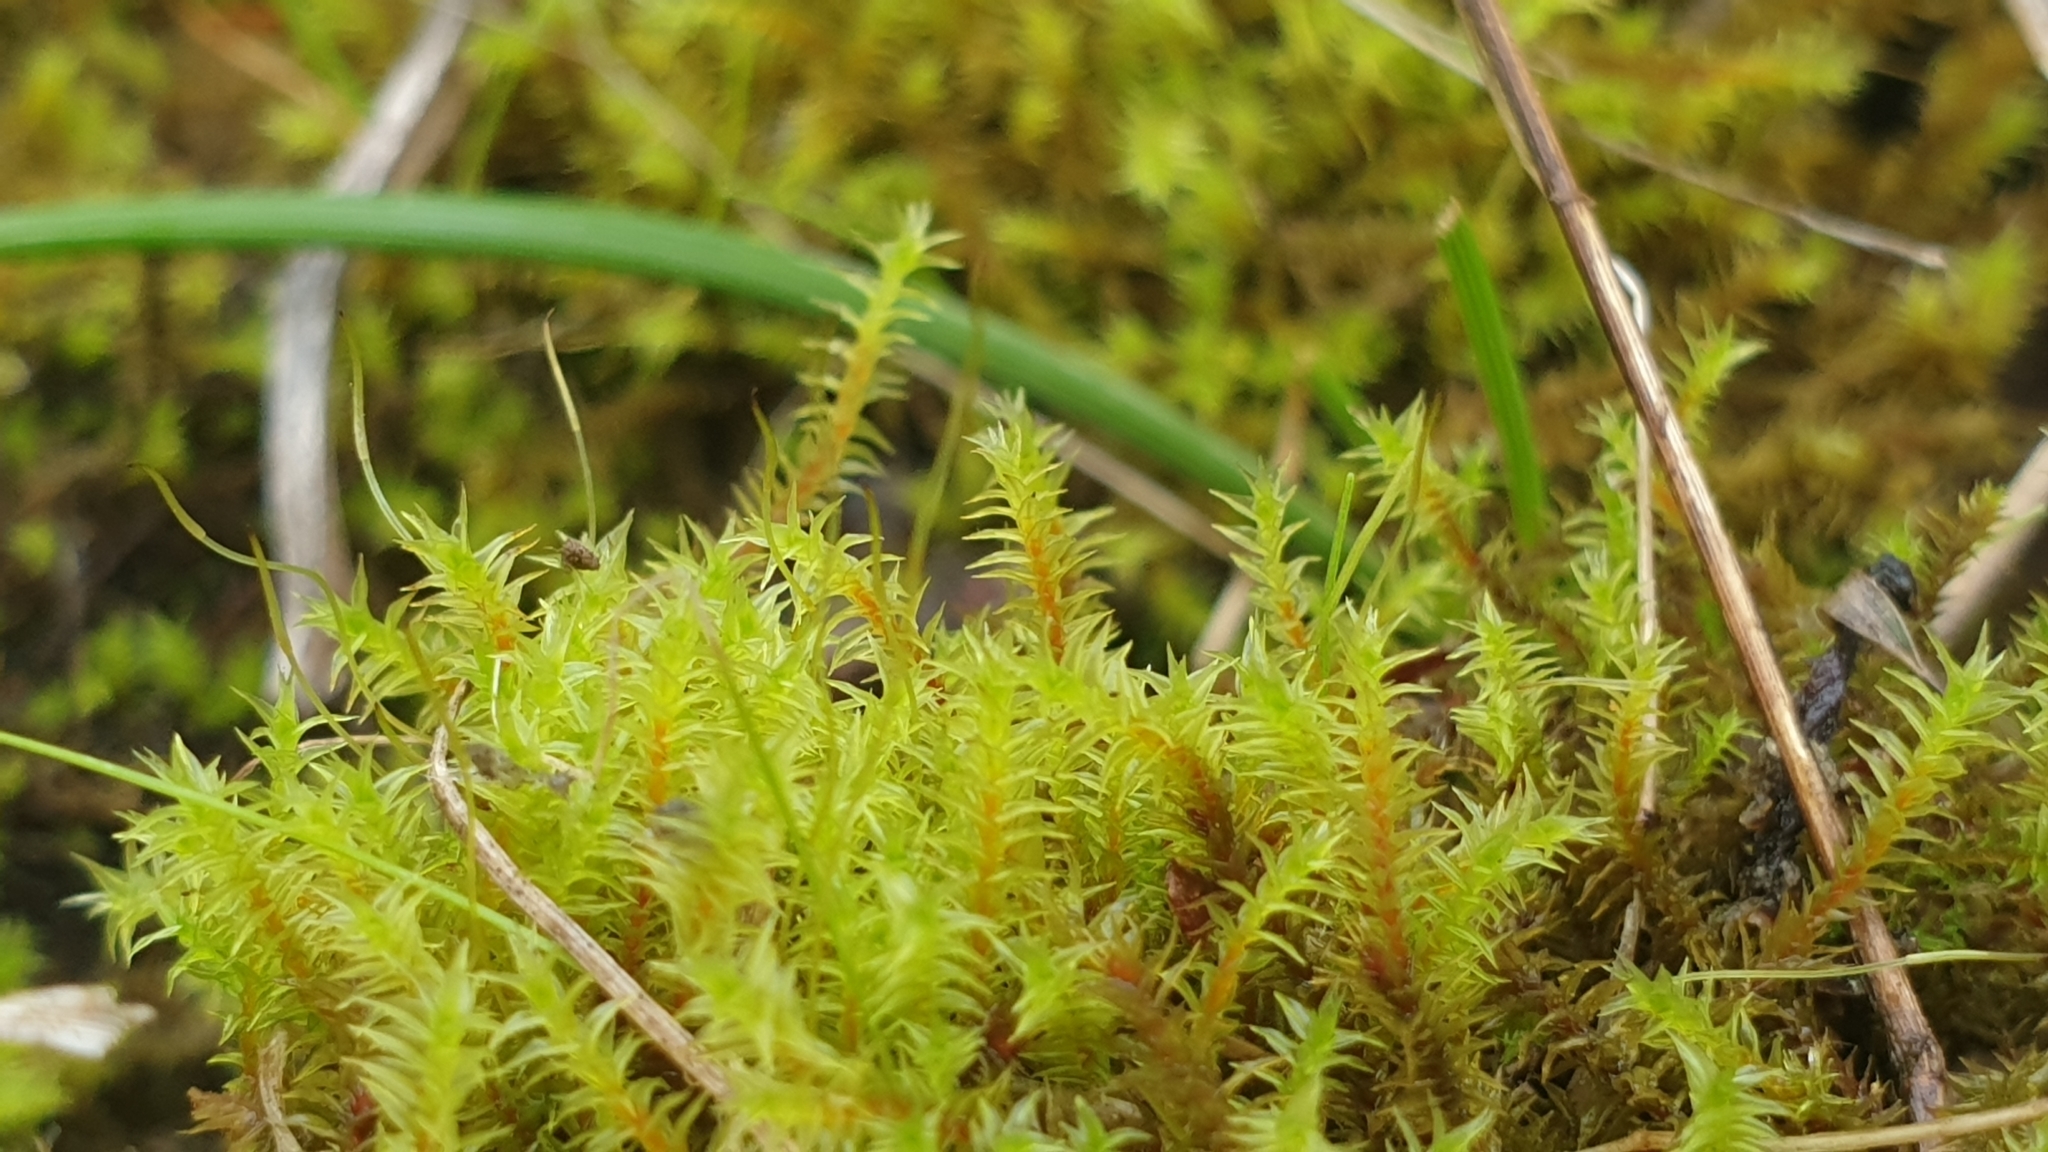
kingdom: Plantae
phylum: Bryophyta
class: Bryopsida
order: Pottiales
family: Pottiaceae
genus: Triquetrella
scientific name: Triquetrella papillata
